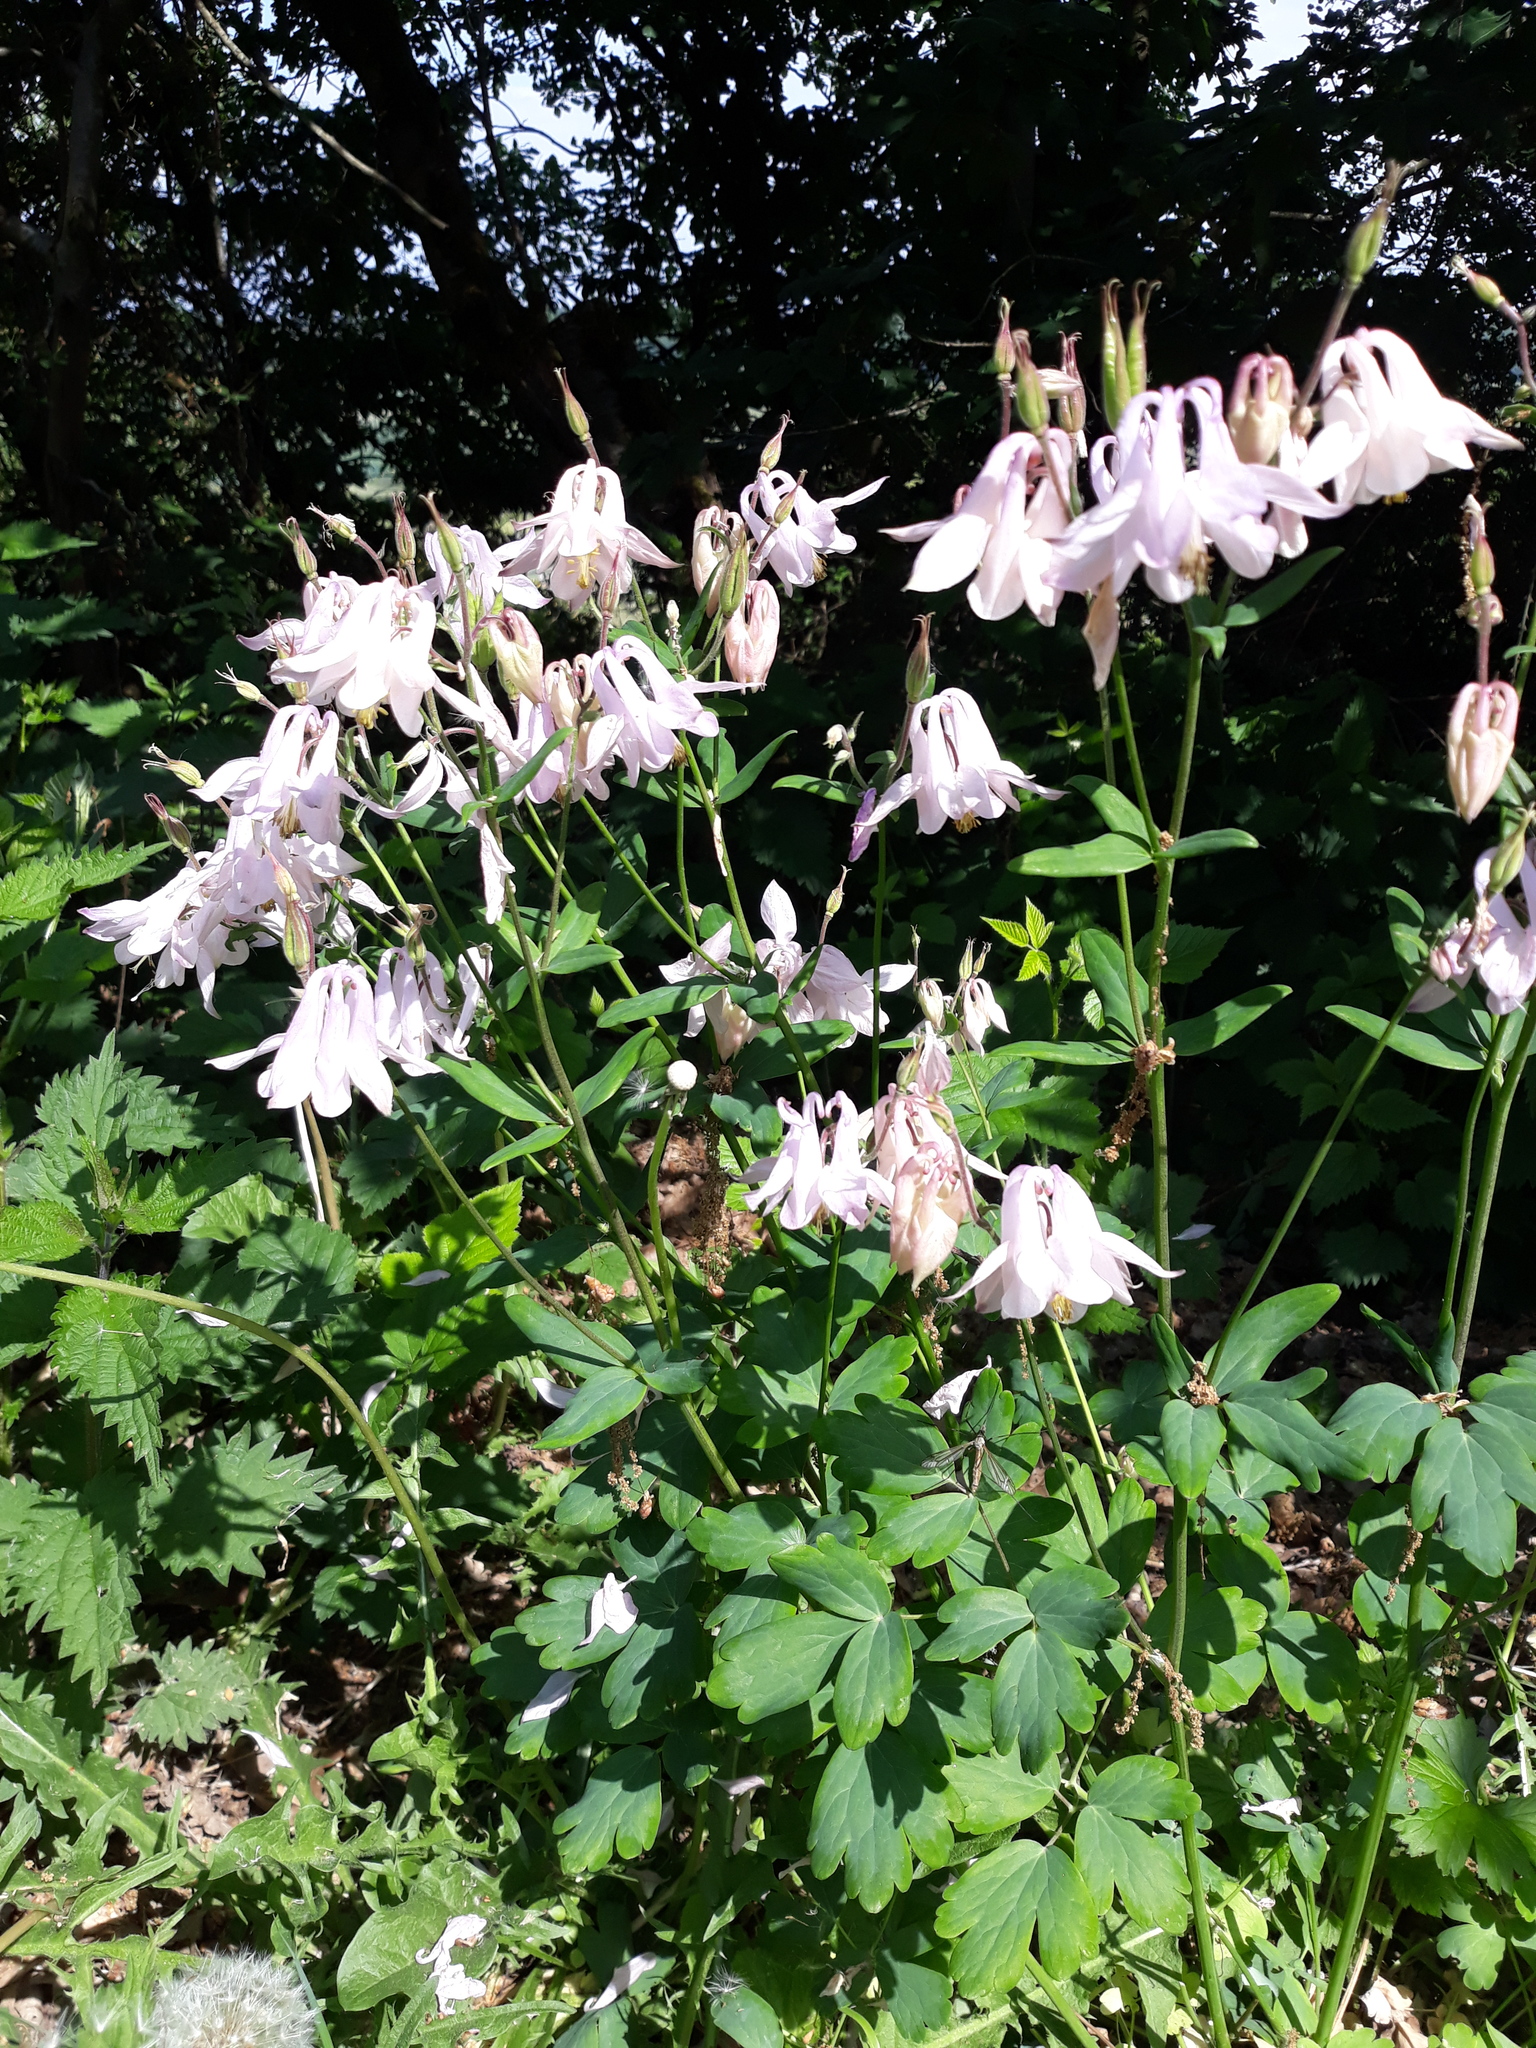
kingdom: Plantae
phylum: Tracheophyta
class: Magnoliopsida
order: Ranunculales
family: Ranunculaceae
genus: Aquilegia
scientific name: Aquilegia vulgaris
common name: Columbine
